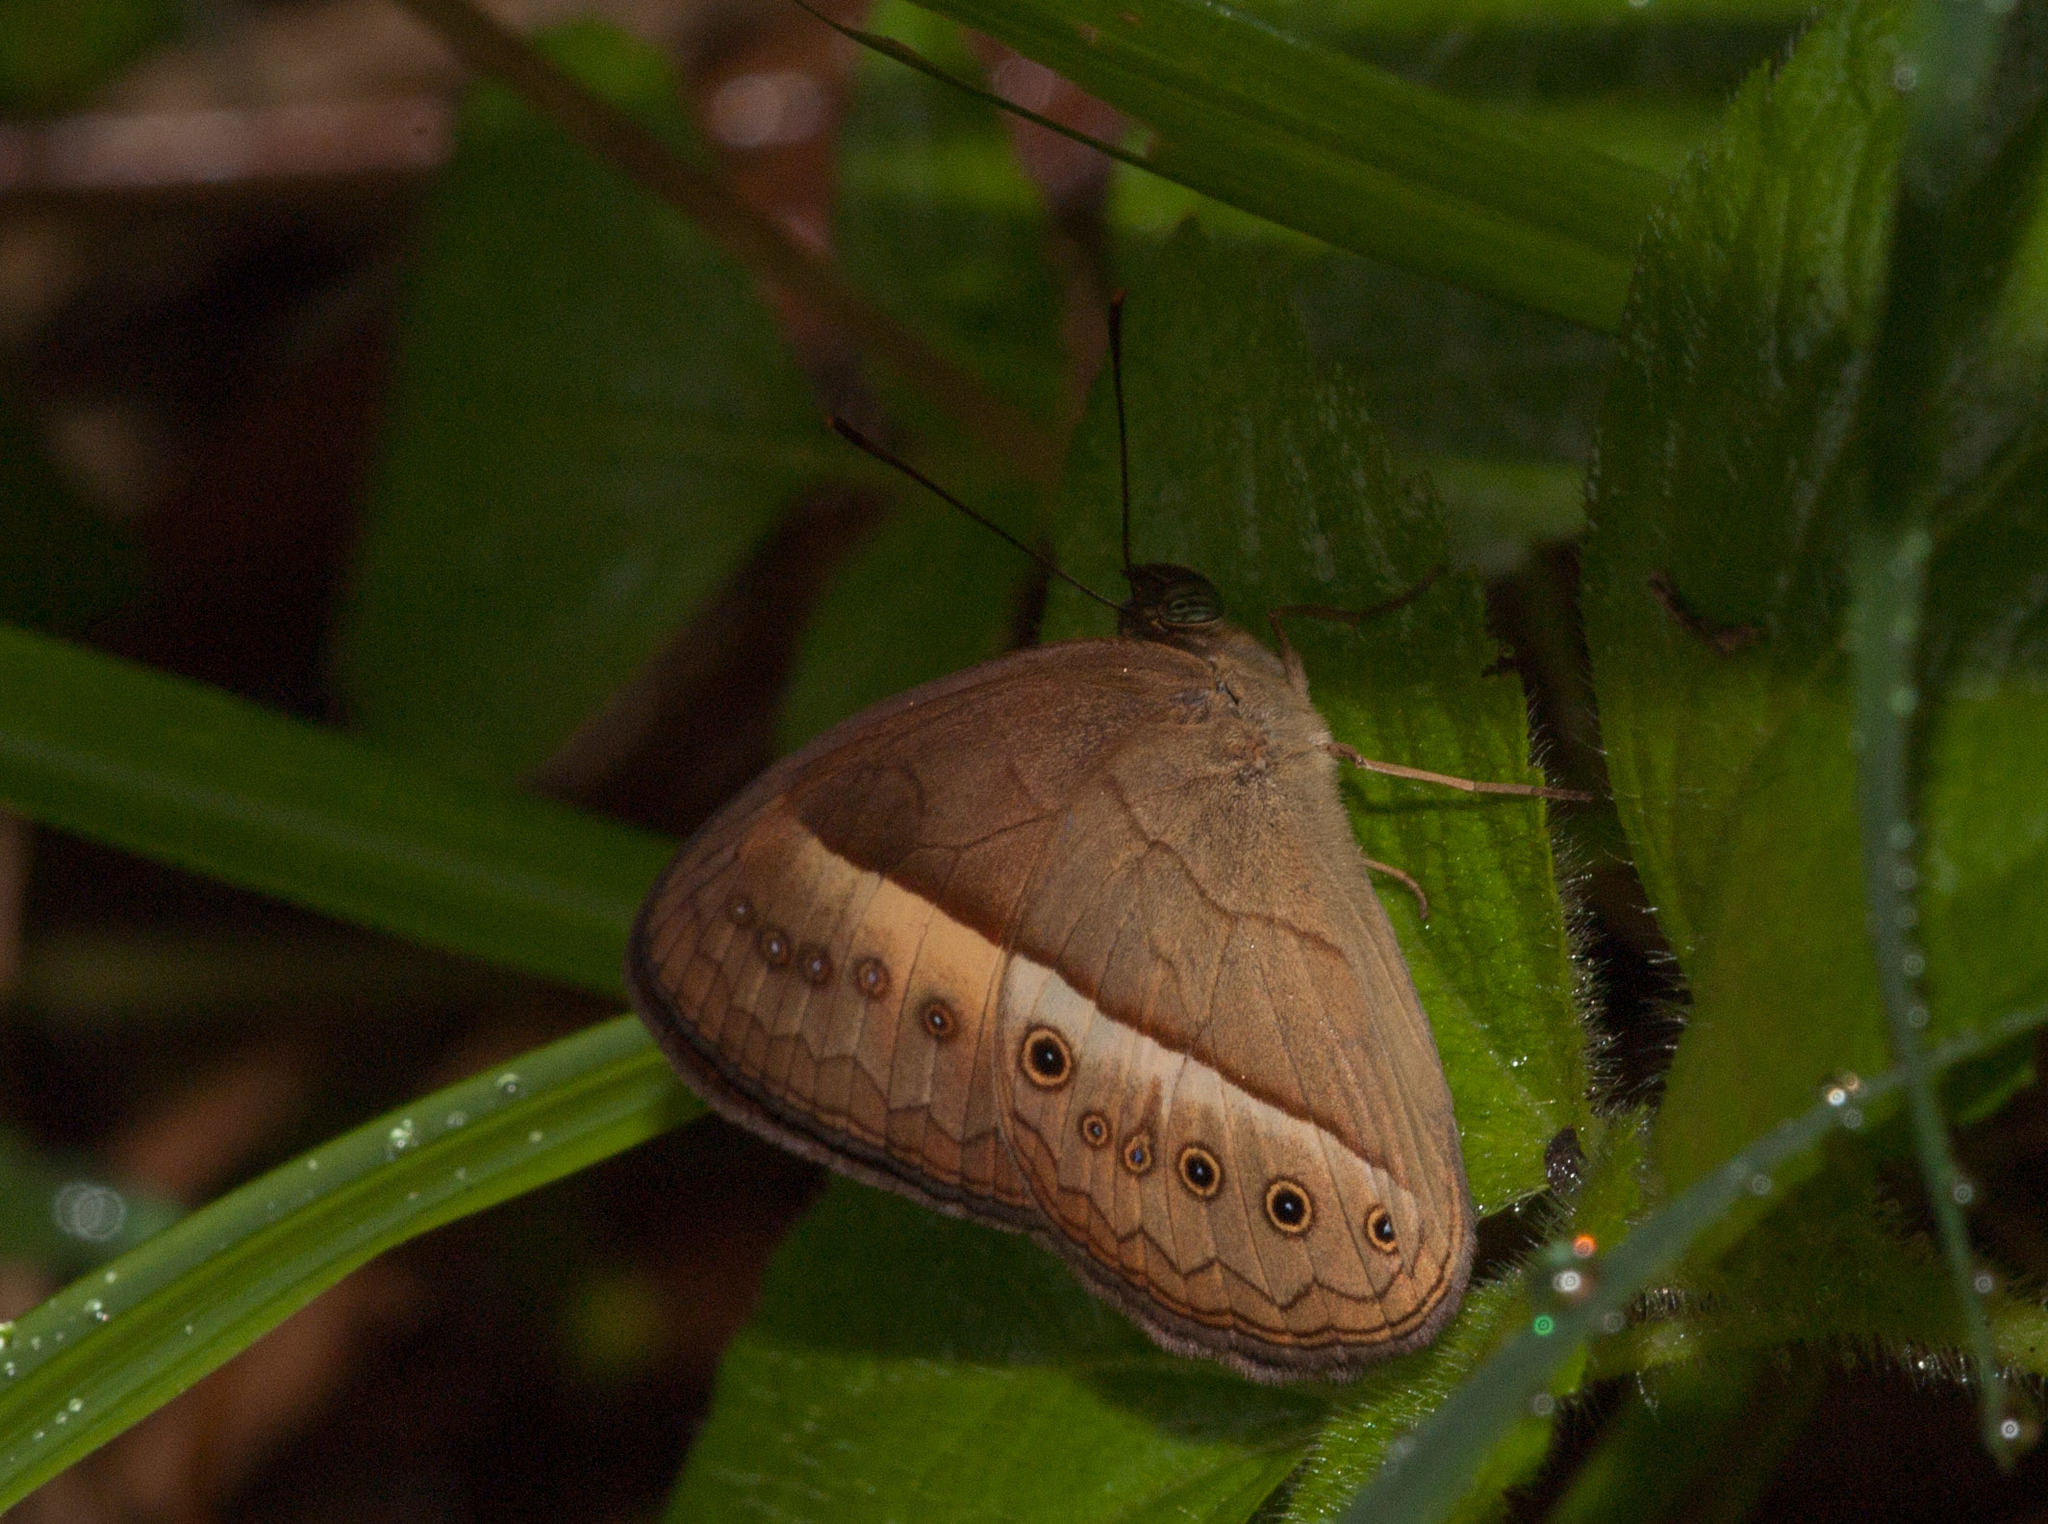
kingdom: Animalia
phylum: Arthropoda
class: Insecta
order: Lepidoptera
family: Nymphalidae
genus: Mycalesis
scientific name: Mycalesis terminus
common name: Orange bushbrown
